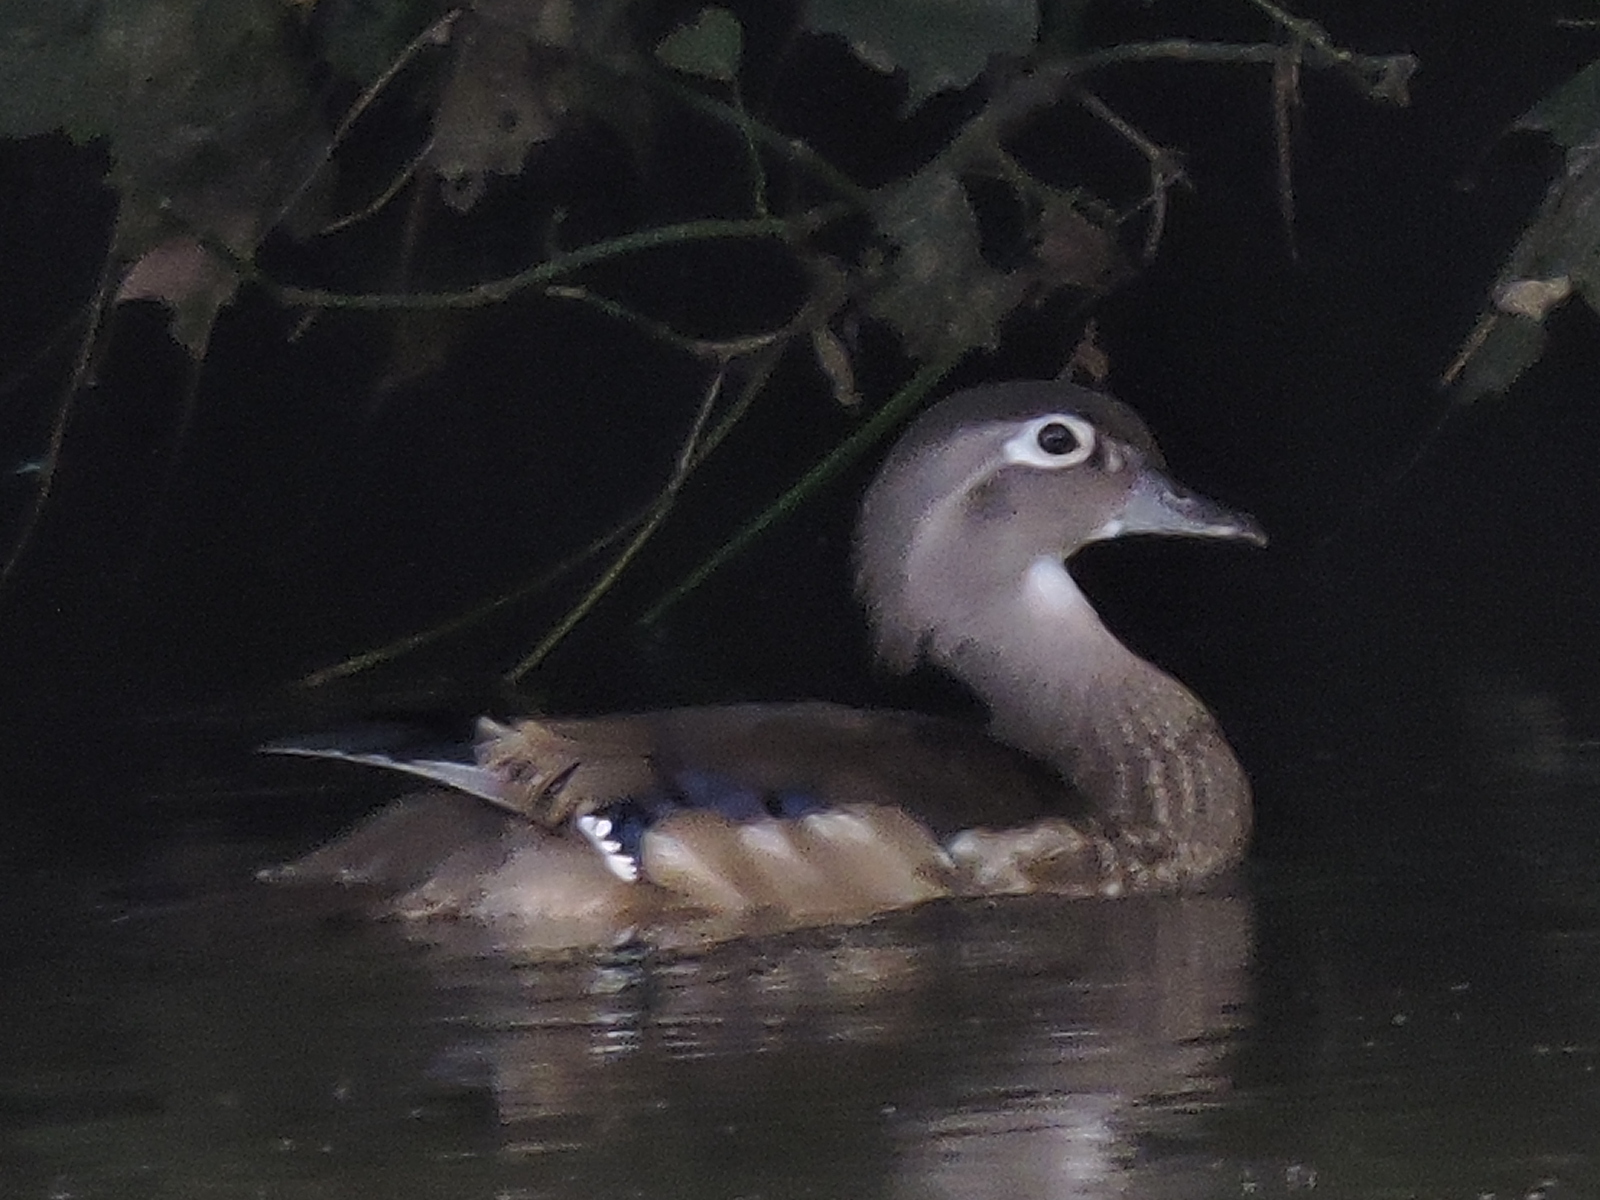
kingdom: Animalia
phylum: Chordata
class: Aves
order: Anseriformes
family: Anatidae
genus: Aix
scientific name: Aix sponsa
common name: Wood duck
